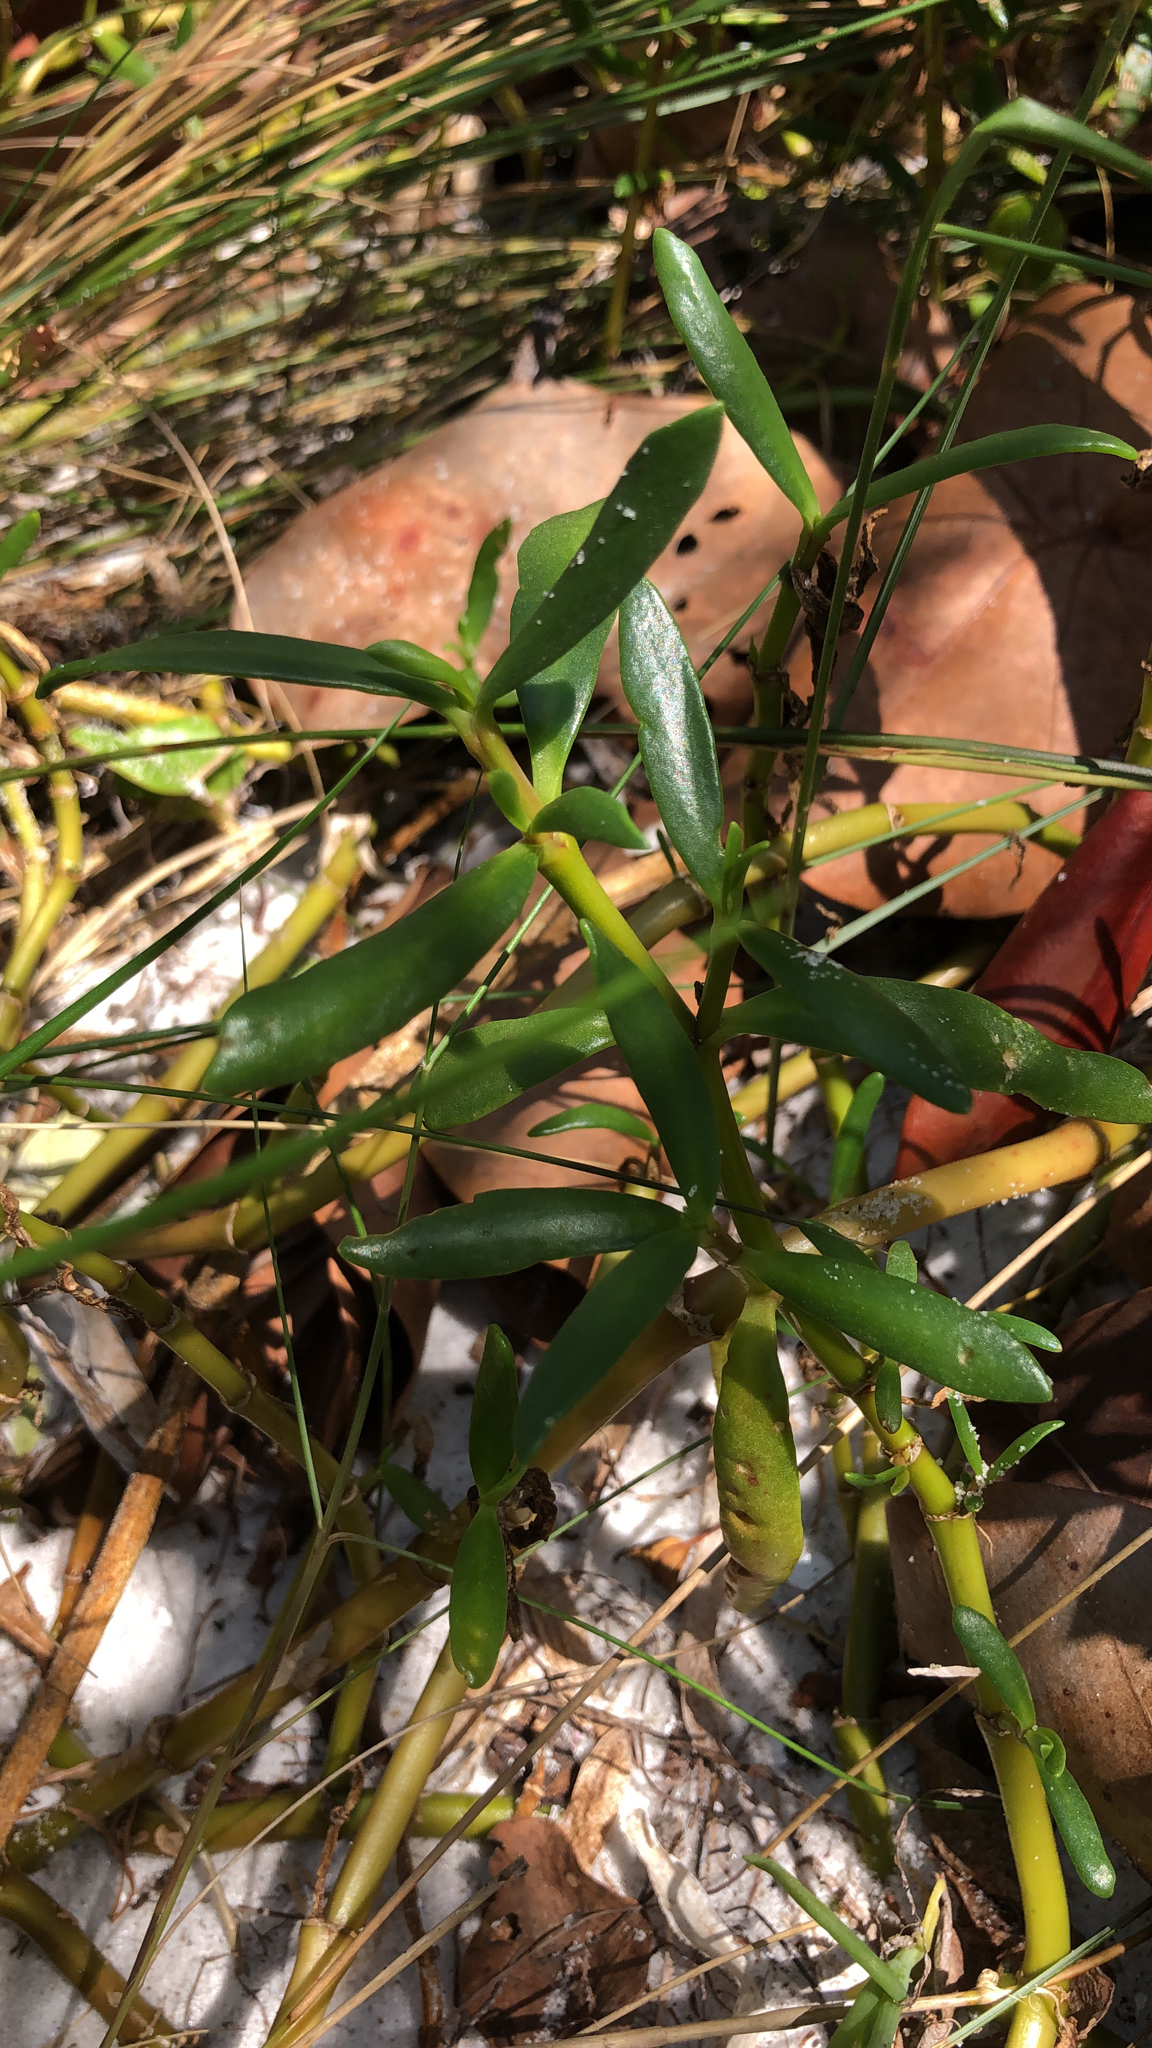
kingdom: Plantae
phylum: Tracheophyta
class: Magnoliopsida
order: Caryophyllales
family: Aizoaceae
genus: Sesuvium
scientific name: Sesuvium portulacastrum
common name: Sea-purslane
